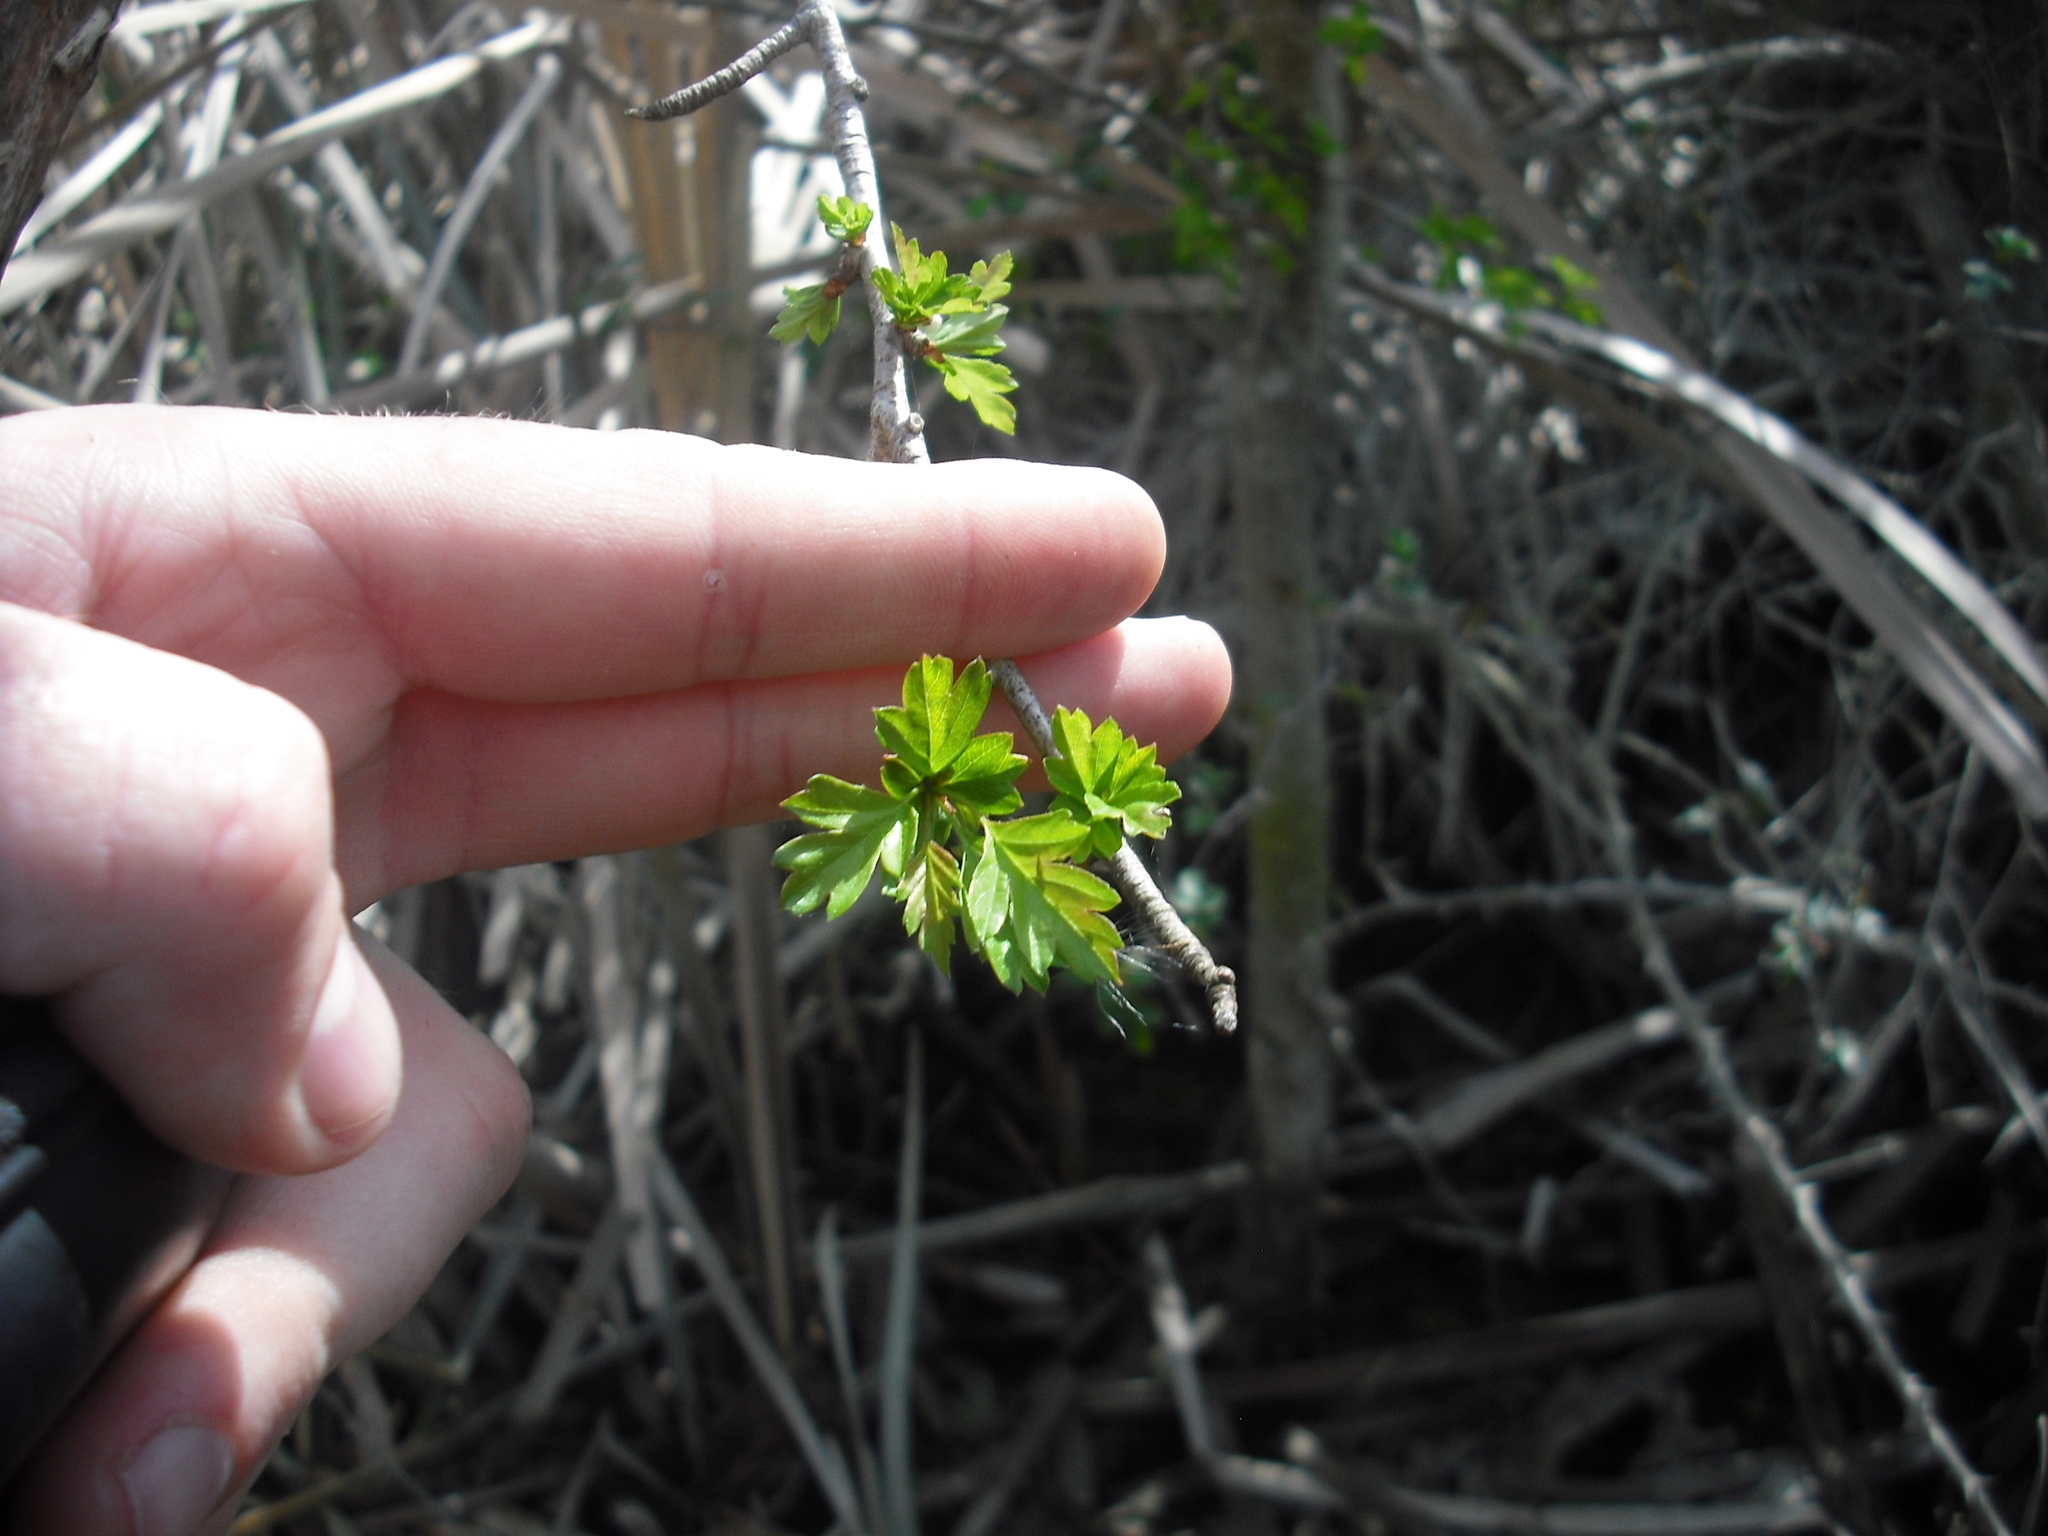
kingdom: Plantae
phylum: Tracheophyta
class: Magnoliopsida
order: Rosales
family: Rosaceae
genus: Crataegus
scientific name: Crataegus monogyna
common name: Hawthorn
